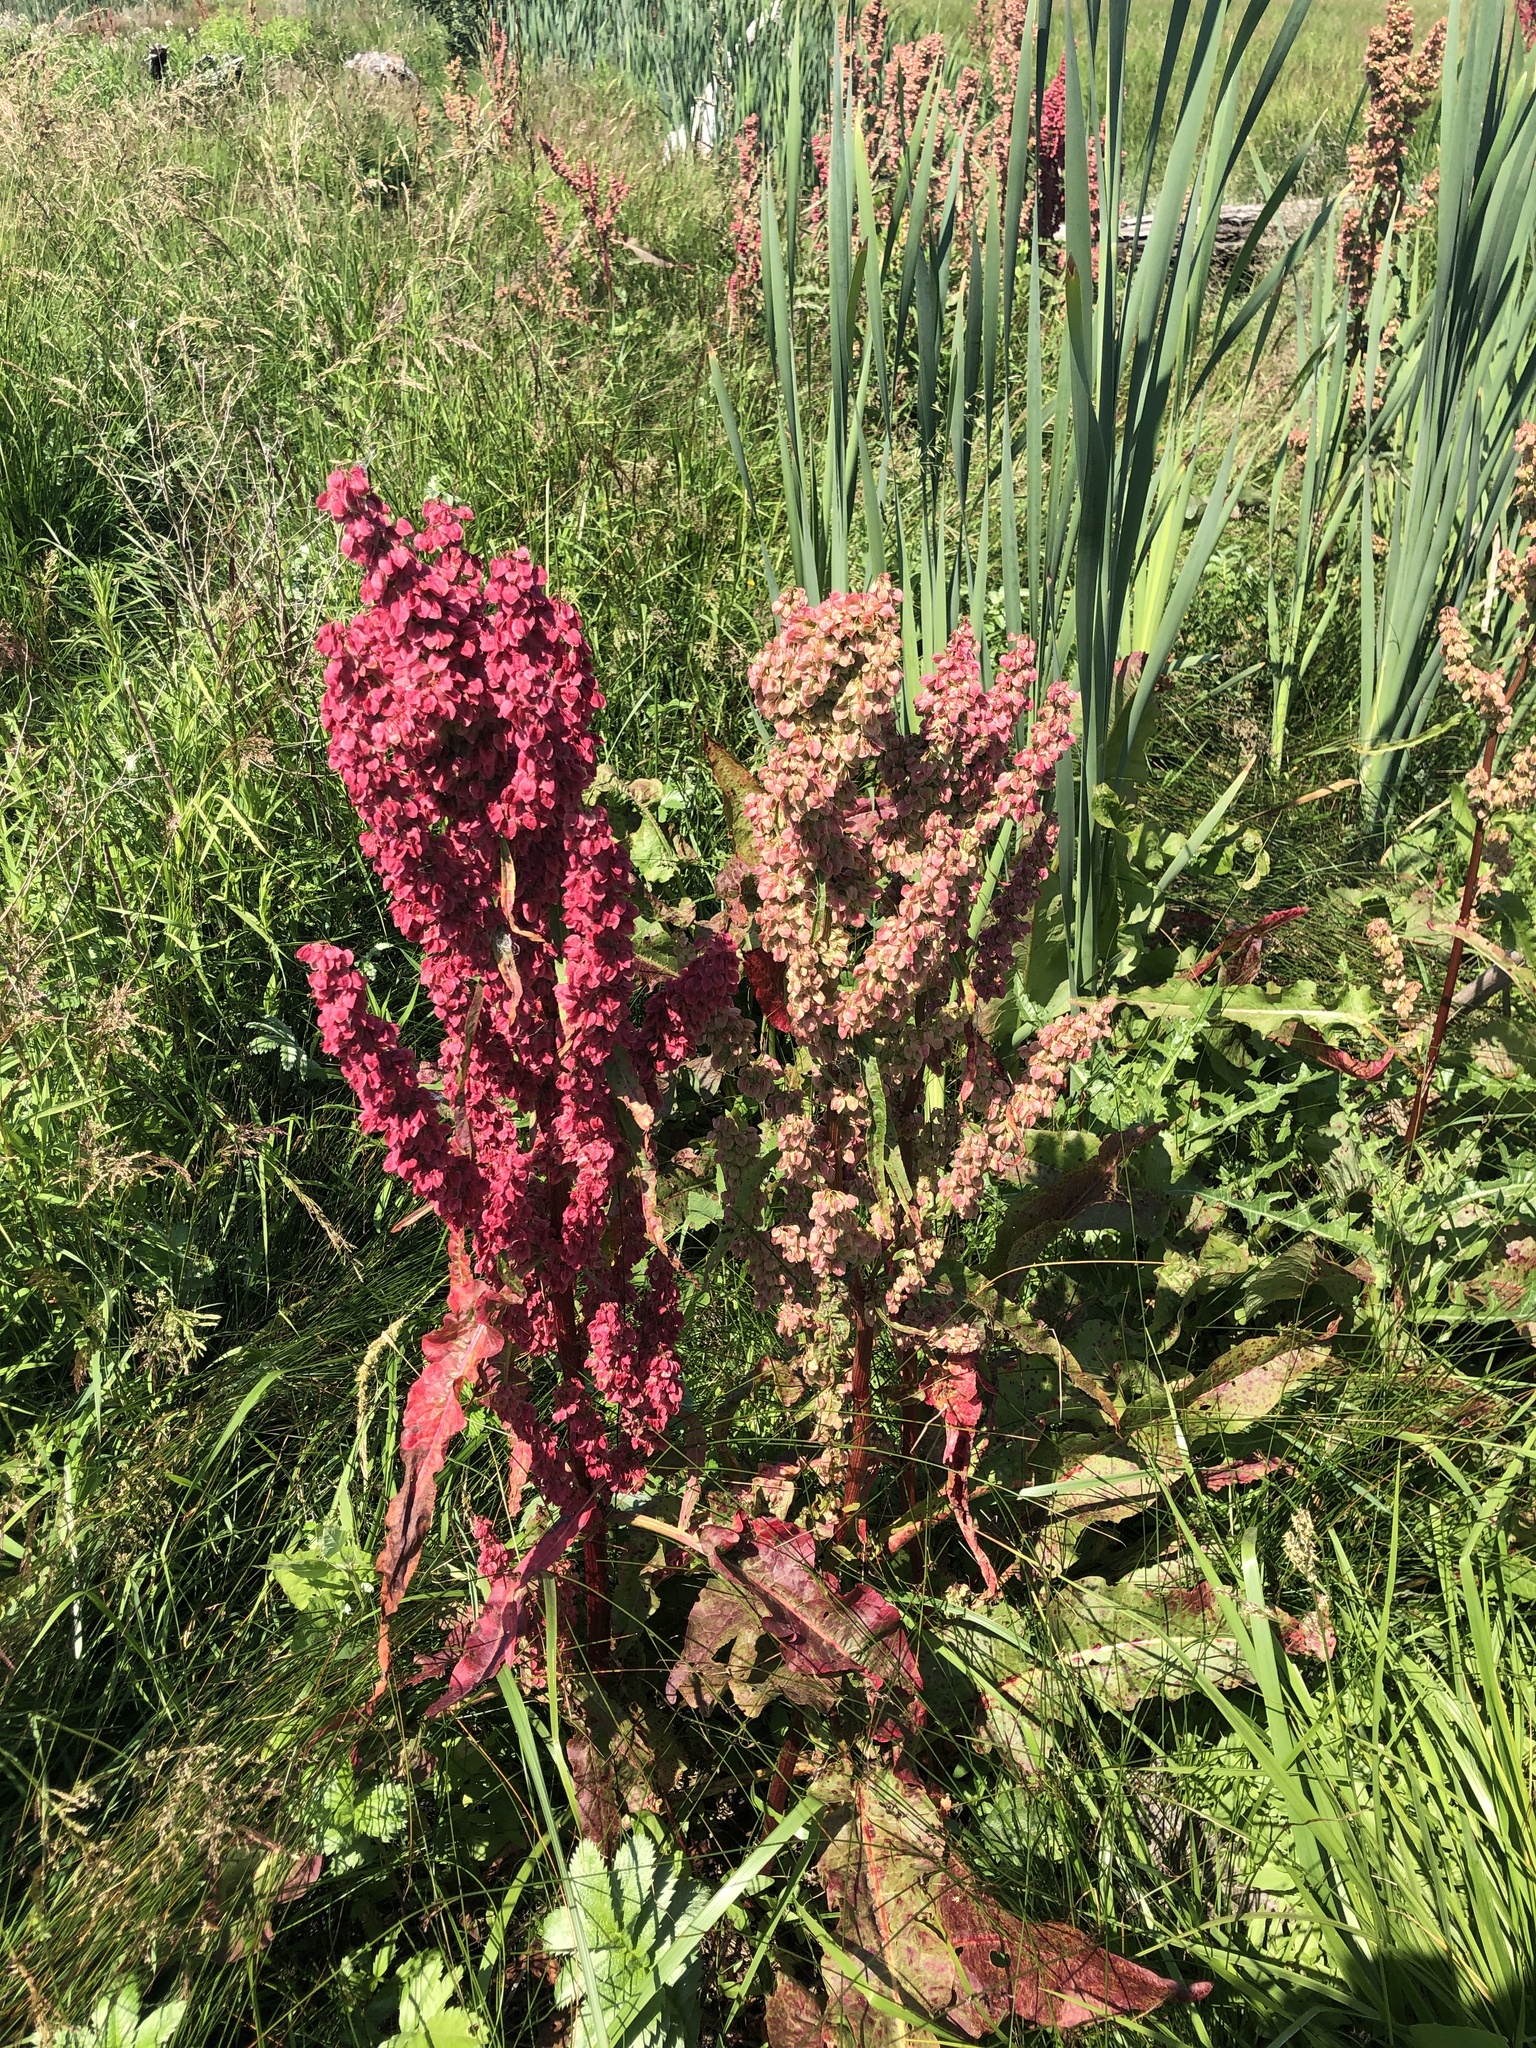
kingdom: Plantae
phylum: Tracheophyta
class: Magnoliopsida
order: Caryophyllales
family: Polygonaceae
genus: Rumex
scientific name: Rumex occidentalis
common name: Western dock
